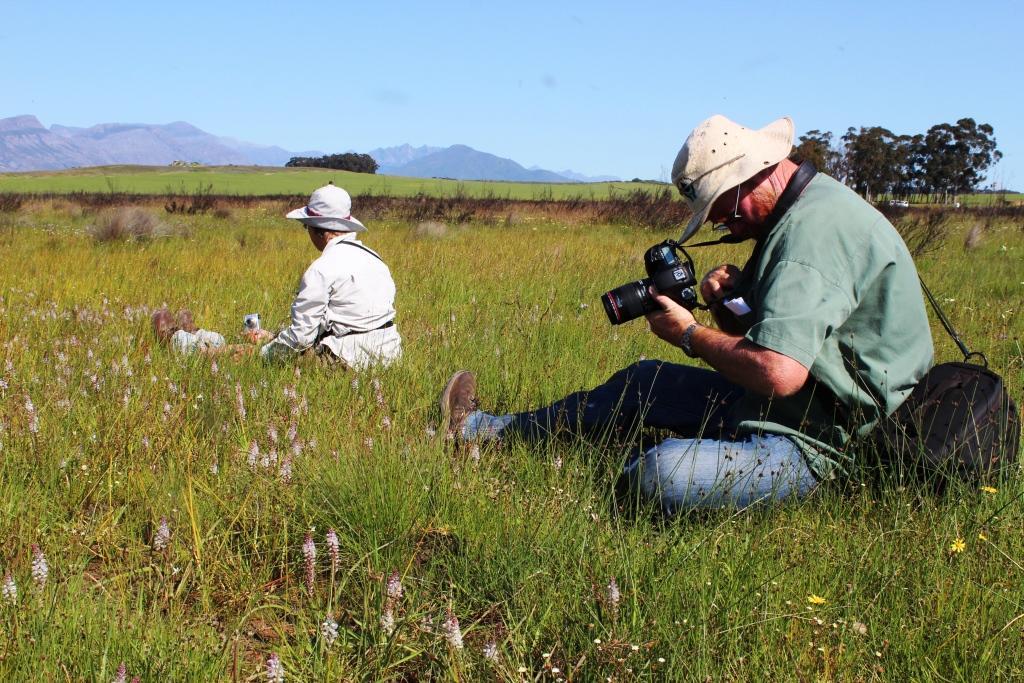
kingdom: Plantae
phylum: Tracheophyta
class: Liliopsida
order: Asparagales
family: Asparagaceae
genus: Lachenalia
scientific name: Lachenalia bachmannii
